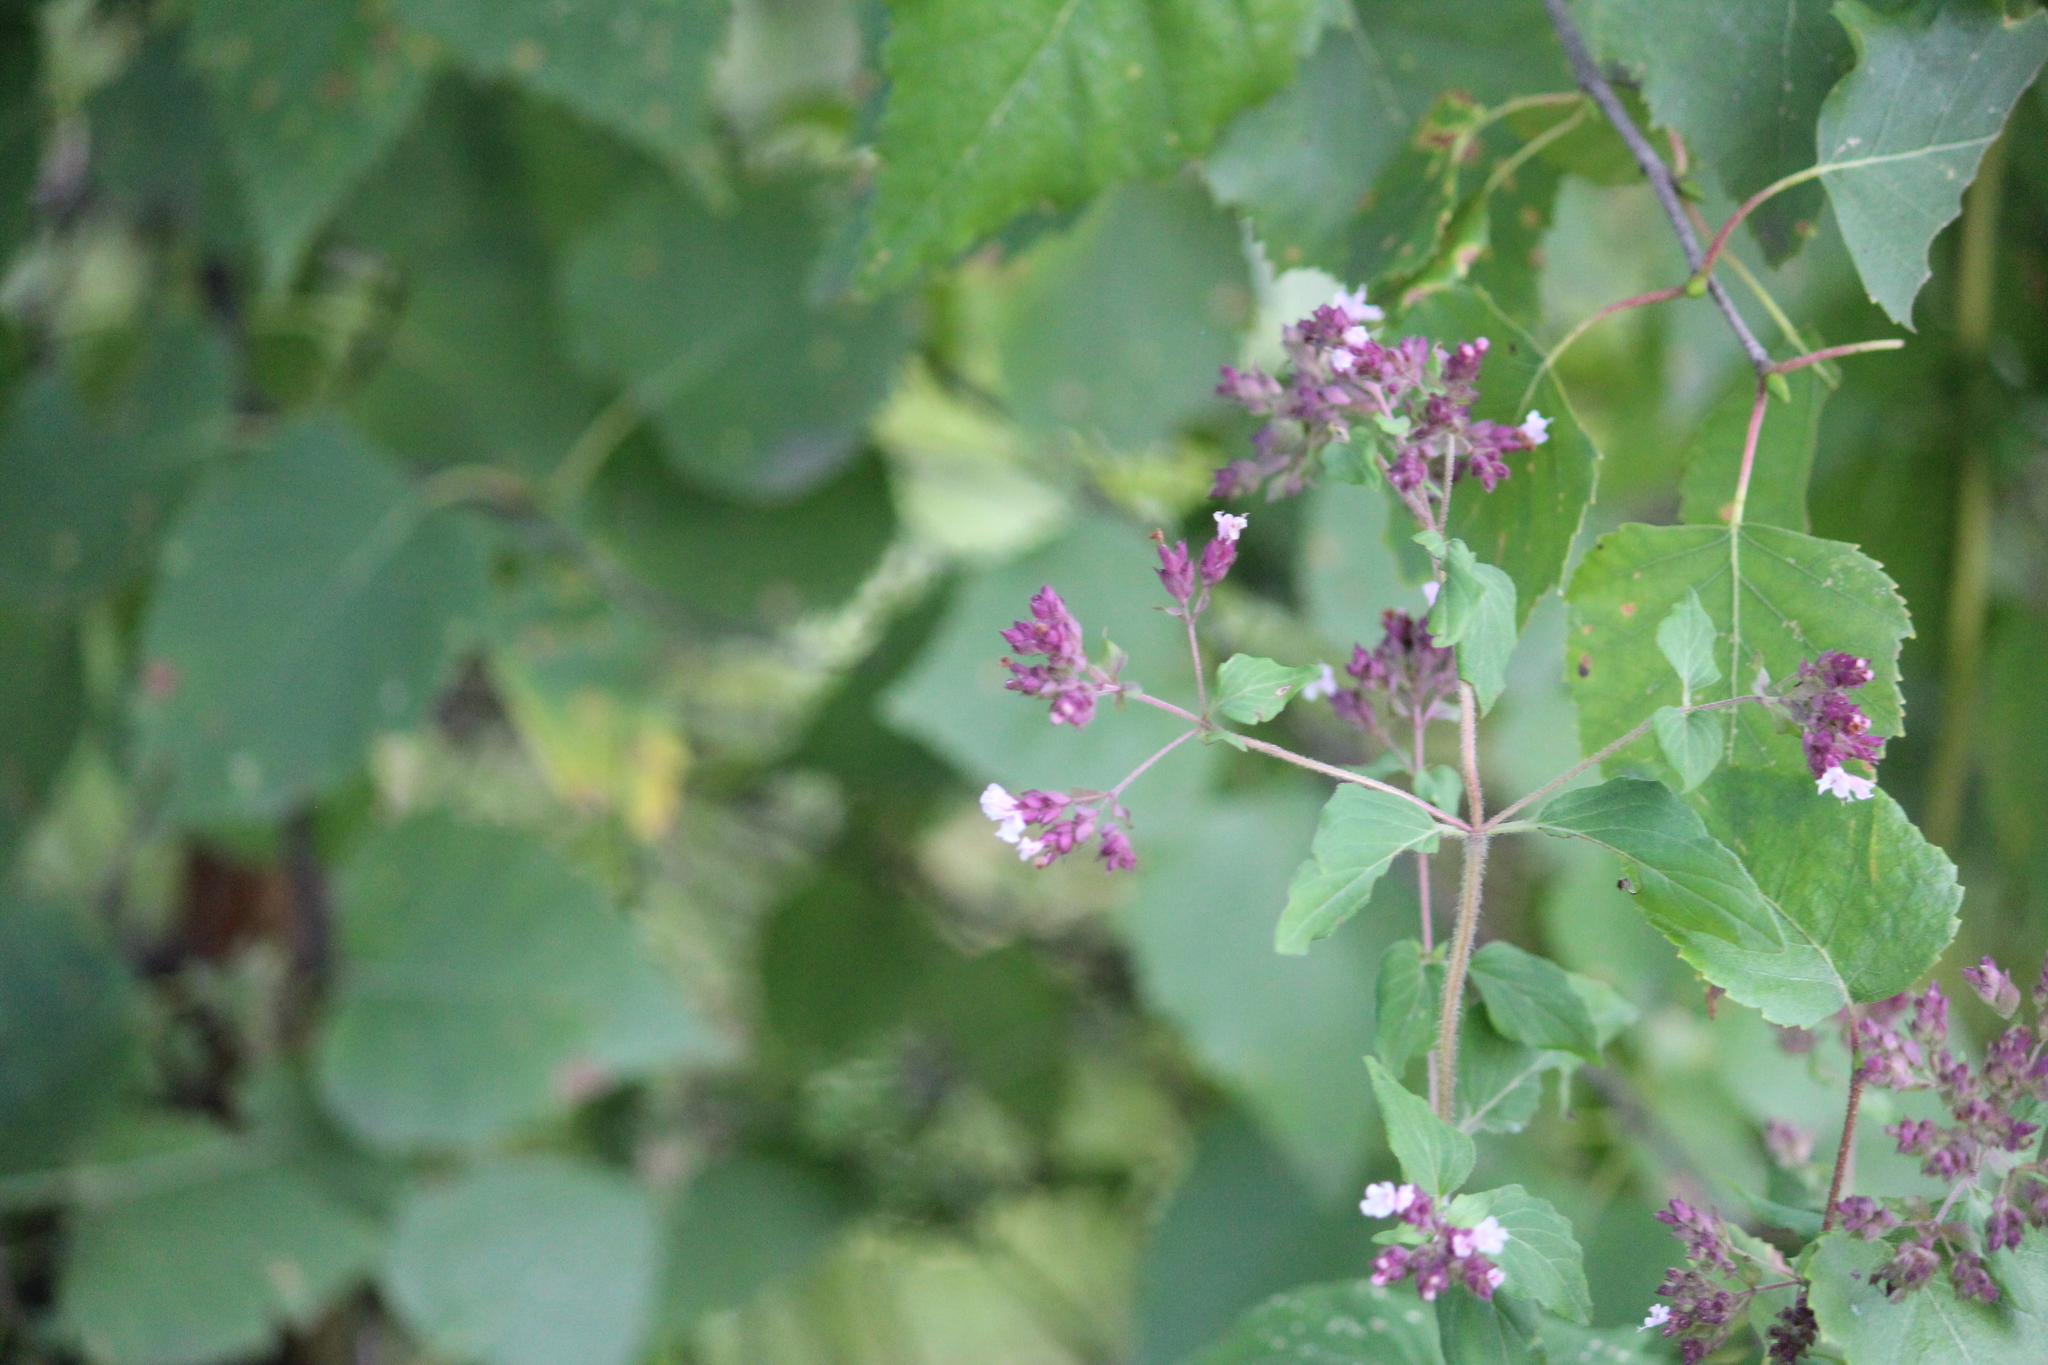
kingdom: Plantae
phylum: Tracheophyta
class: Magnoliopsida
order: Lamiales
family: Lamiaceae
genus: Origanum
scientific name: Origanum vulgare
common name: Wild marjoram
